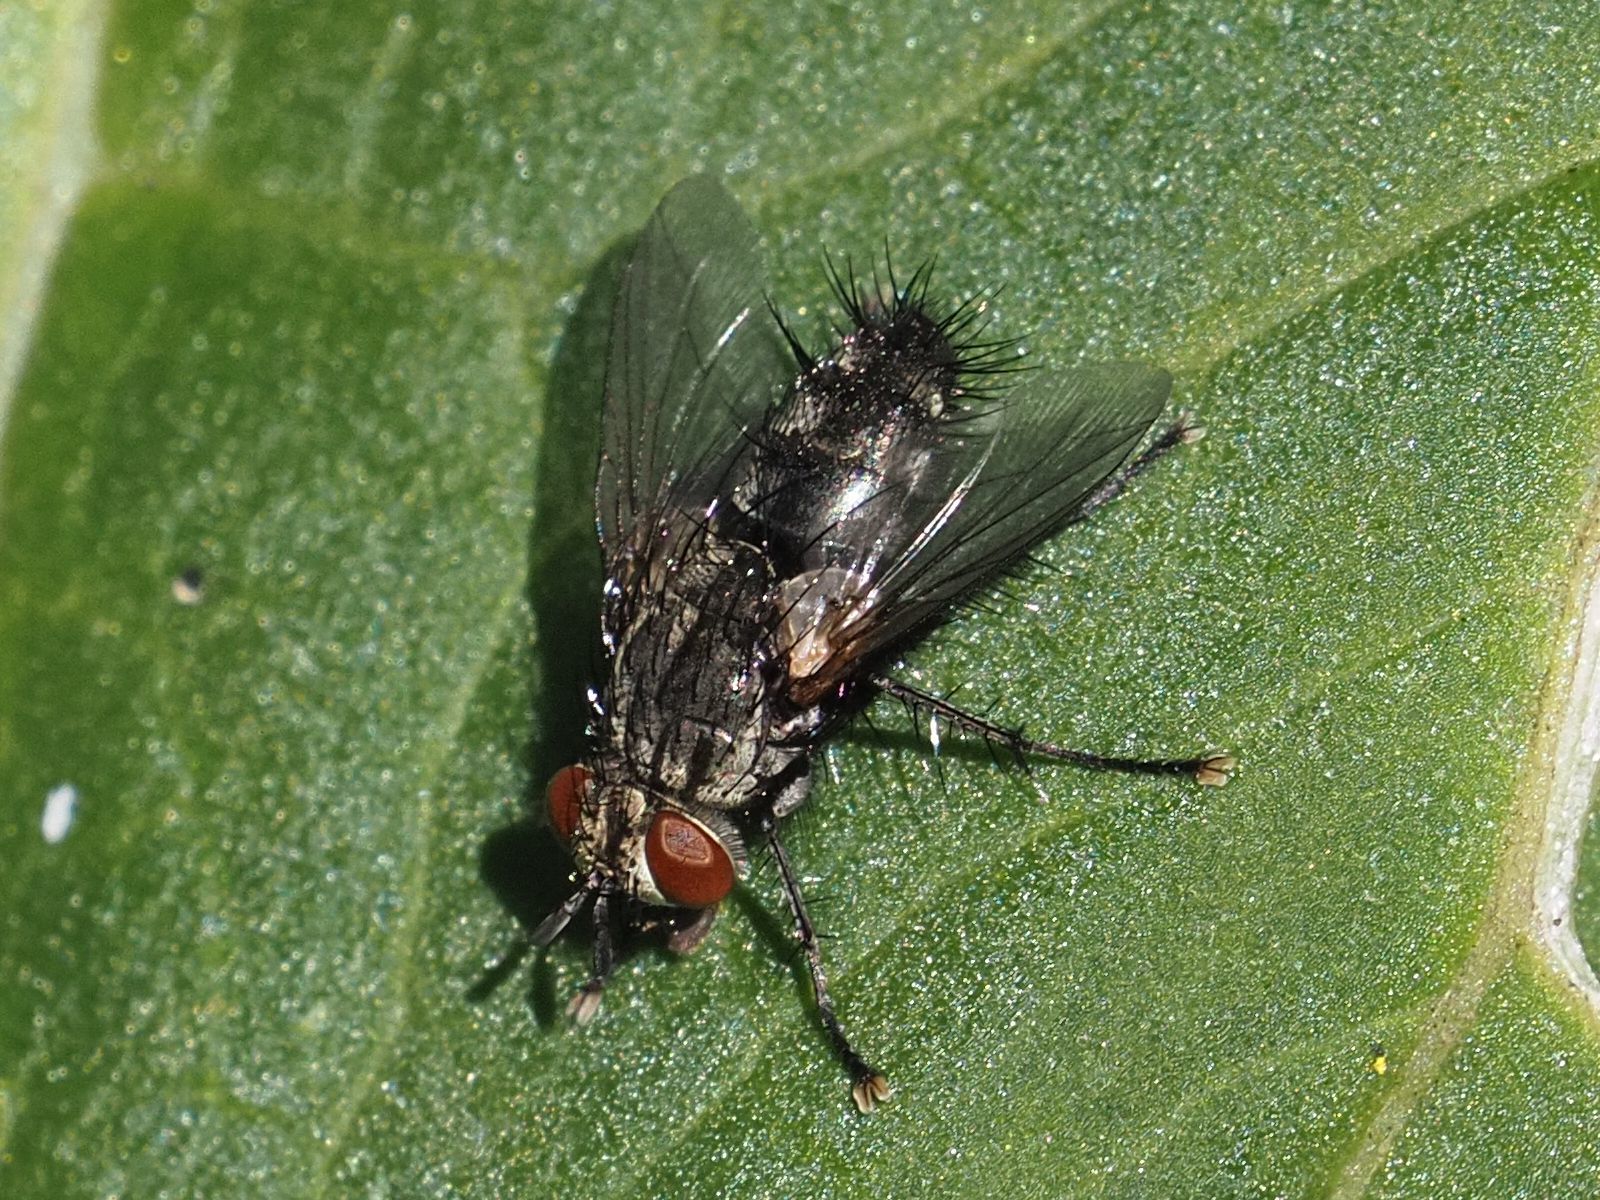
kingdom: Animalia
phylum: Arthropoda
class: Insecta
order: Diptera
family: Tachinidae
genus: Voria
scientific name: Voria ruralis
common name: Parasitic fly
